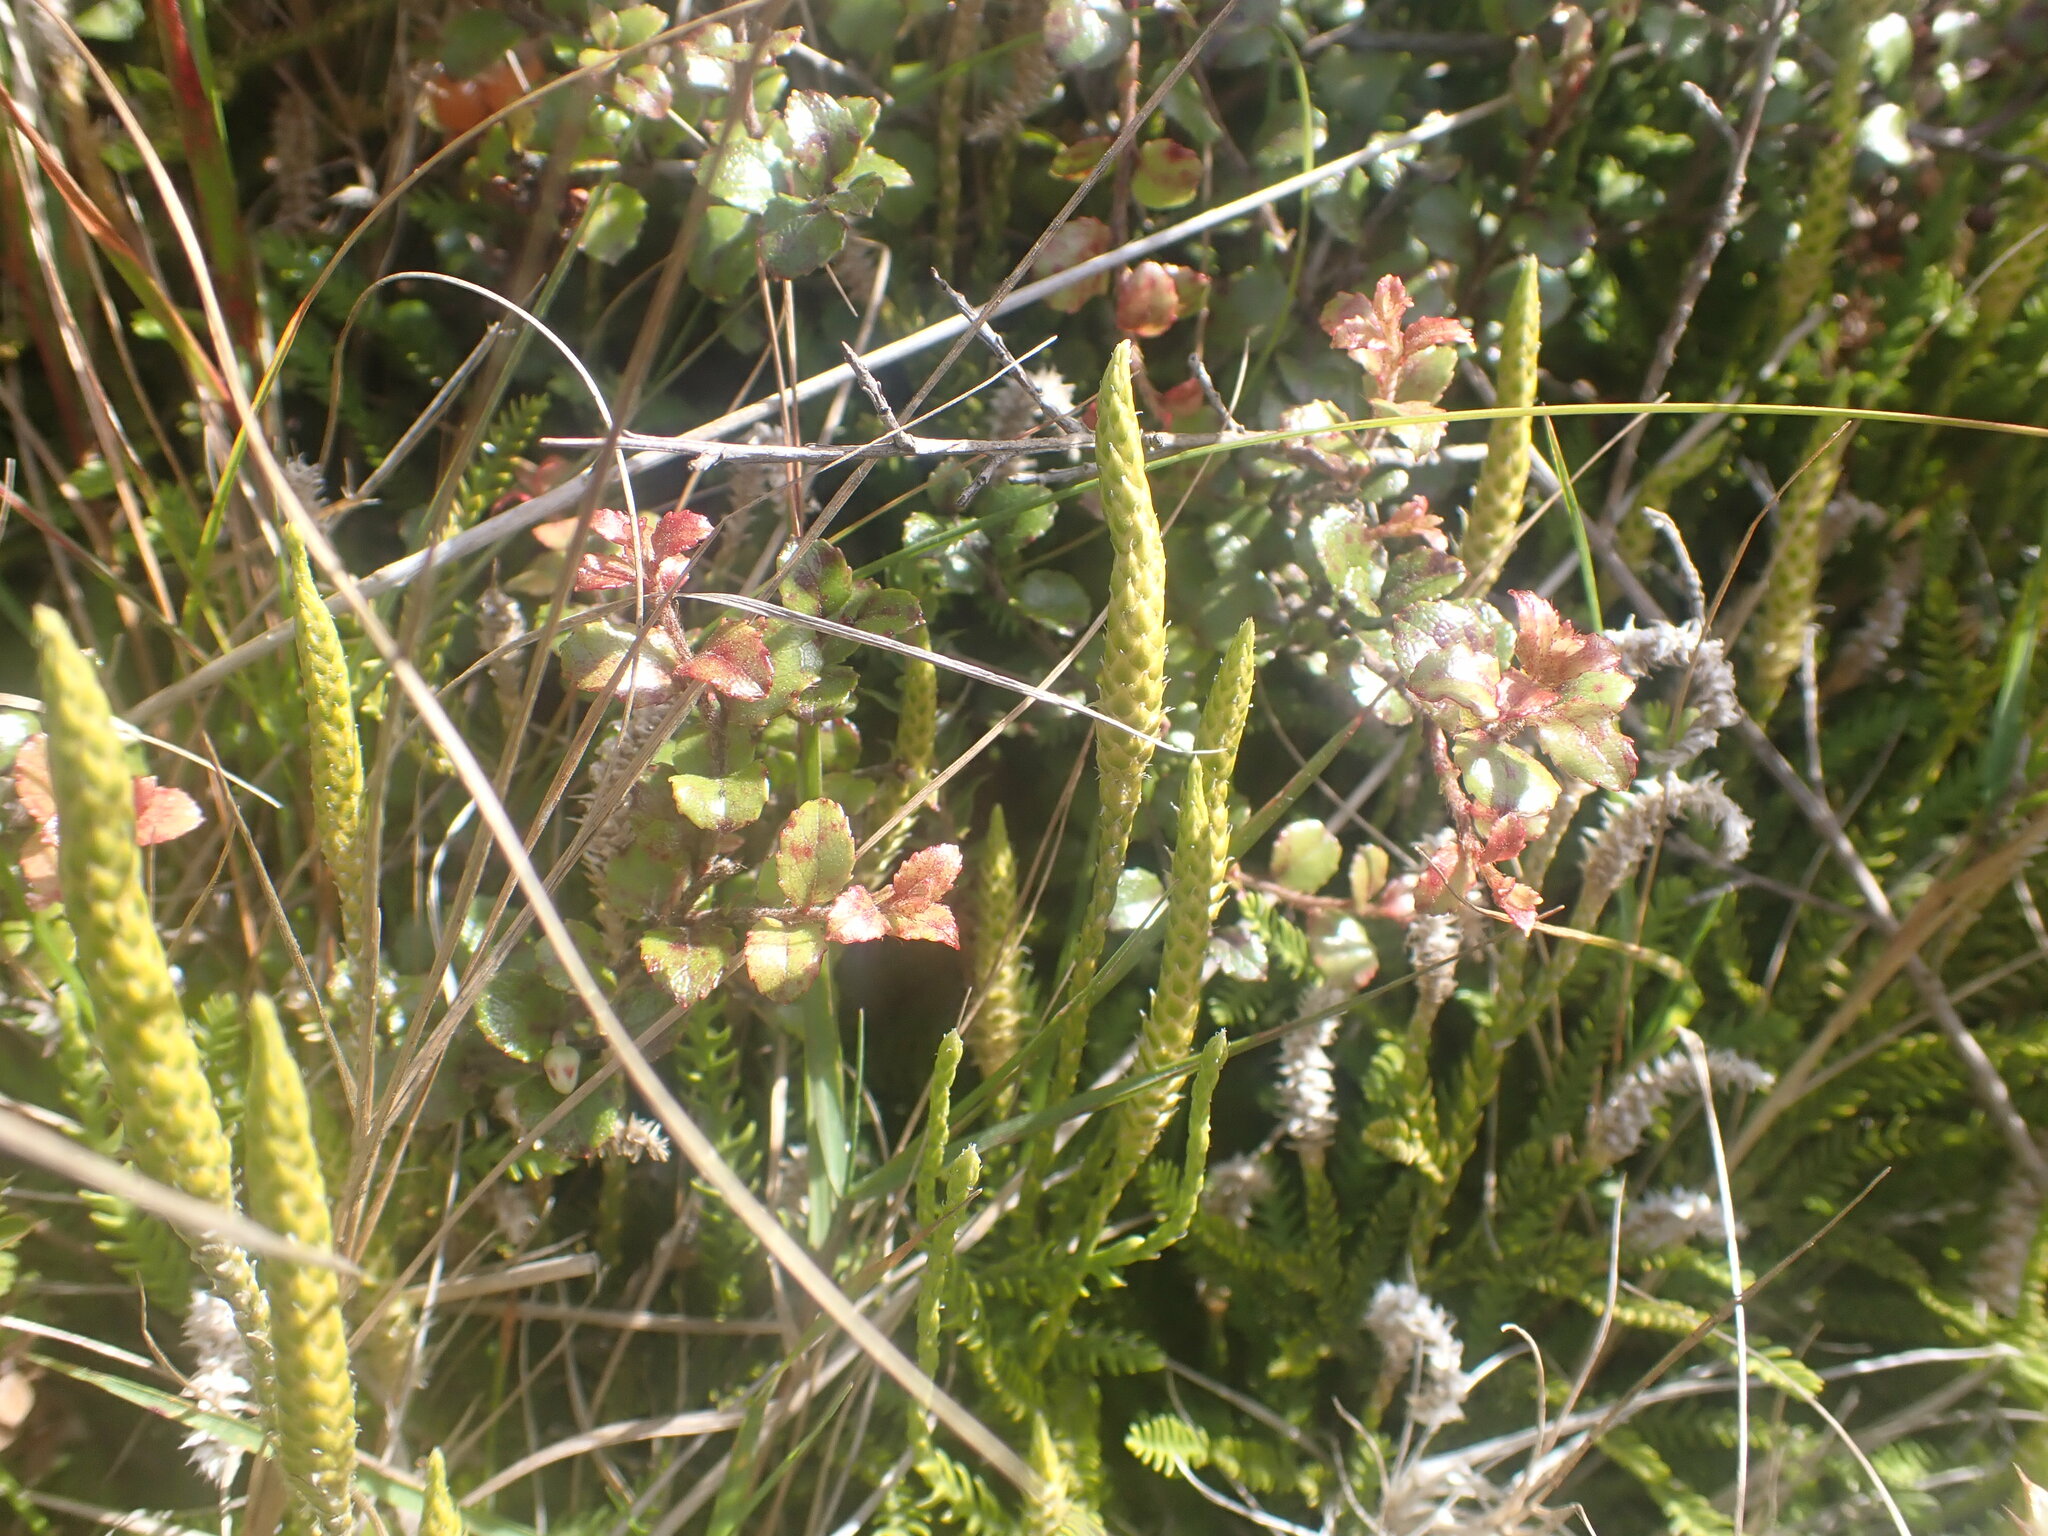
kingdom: Plantae
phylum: Tracheophyta
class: Lycopodiopsida
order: Lycopodiales
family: Lycopodiaceae
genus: Diphasium
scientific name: Diphasium scariosum
